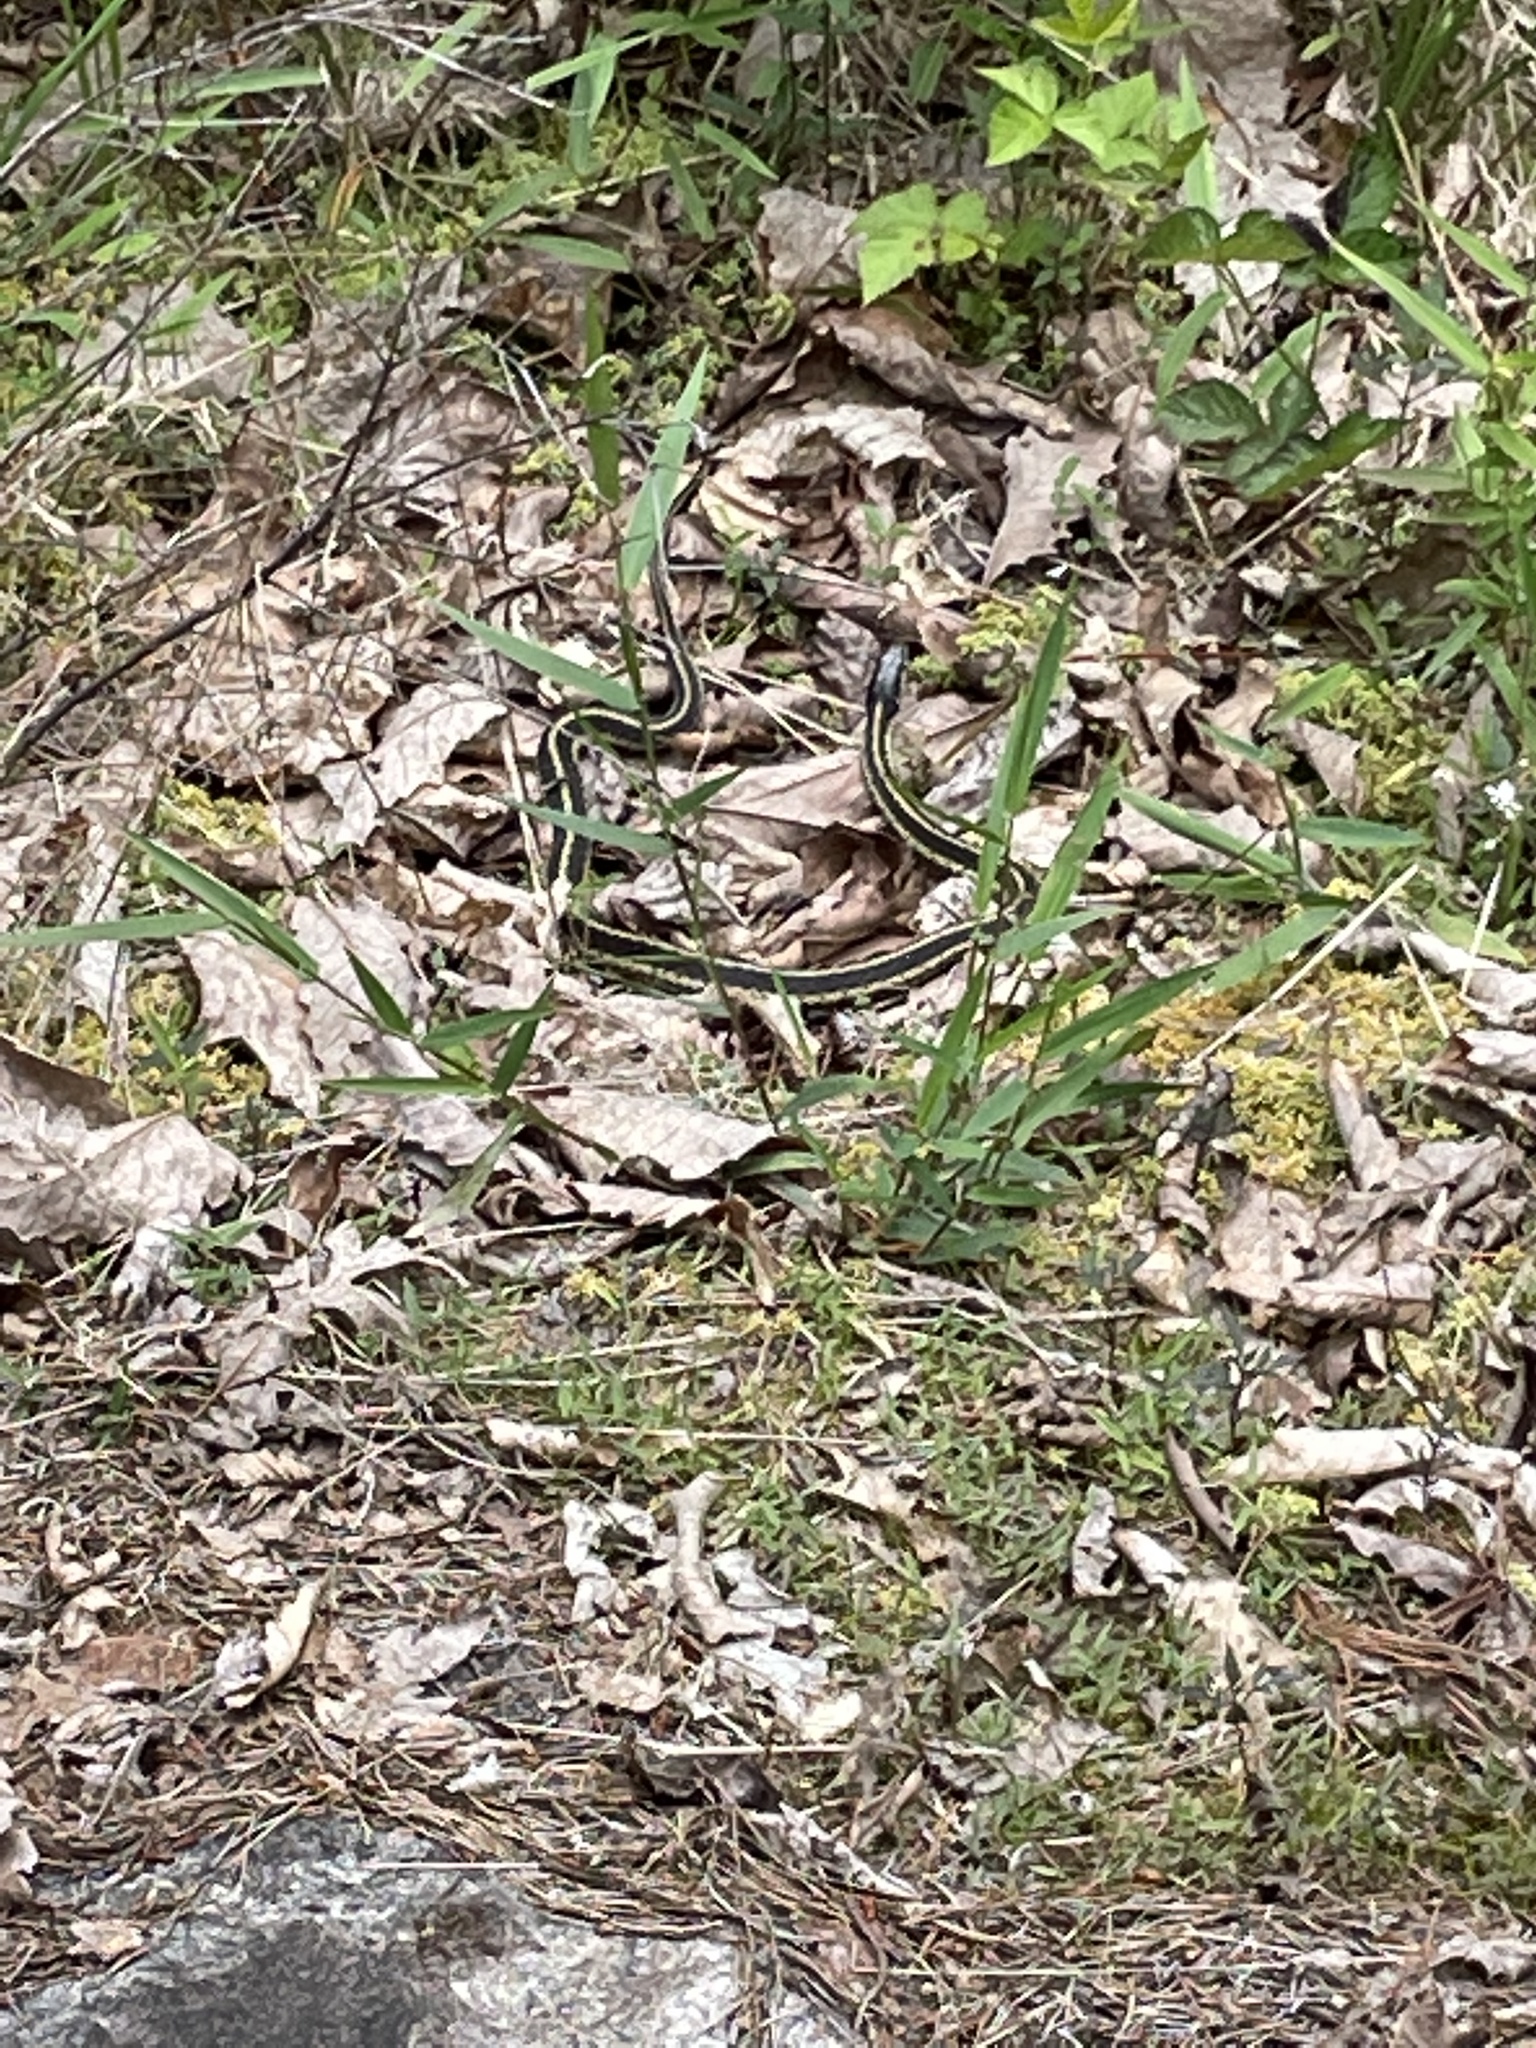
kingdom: Animalia
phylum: Chordata
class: Squamata
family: Colubridae
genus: Thamnophis
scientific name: Thamnophis sirtalis
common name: Common garter snake
